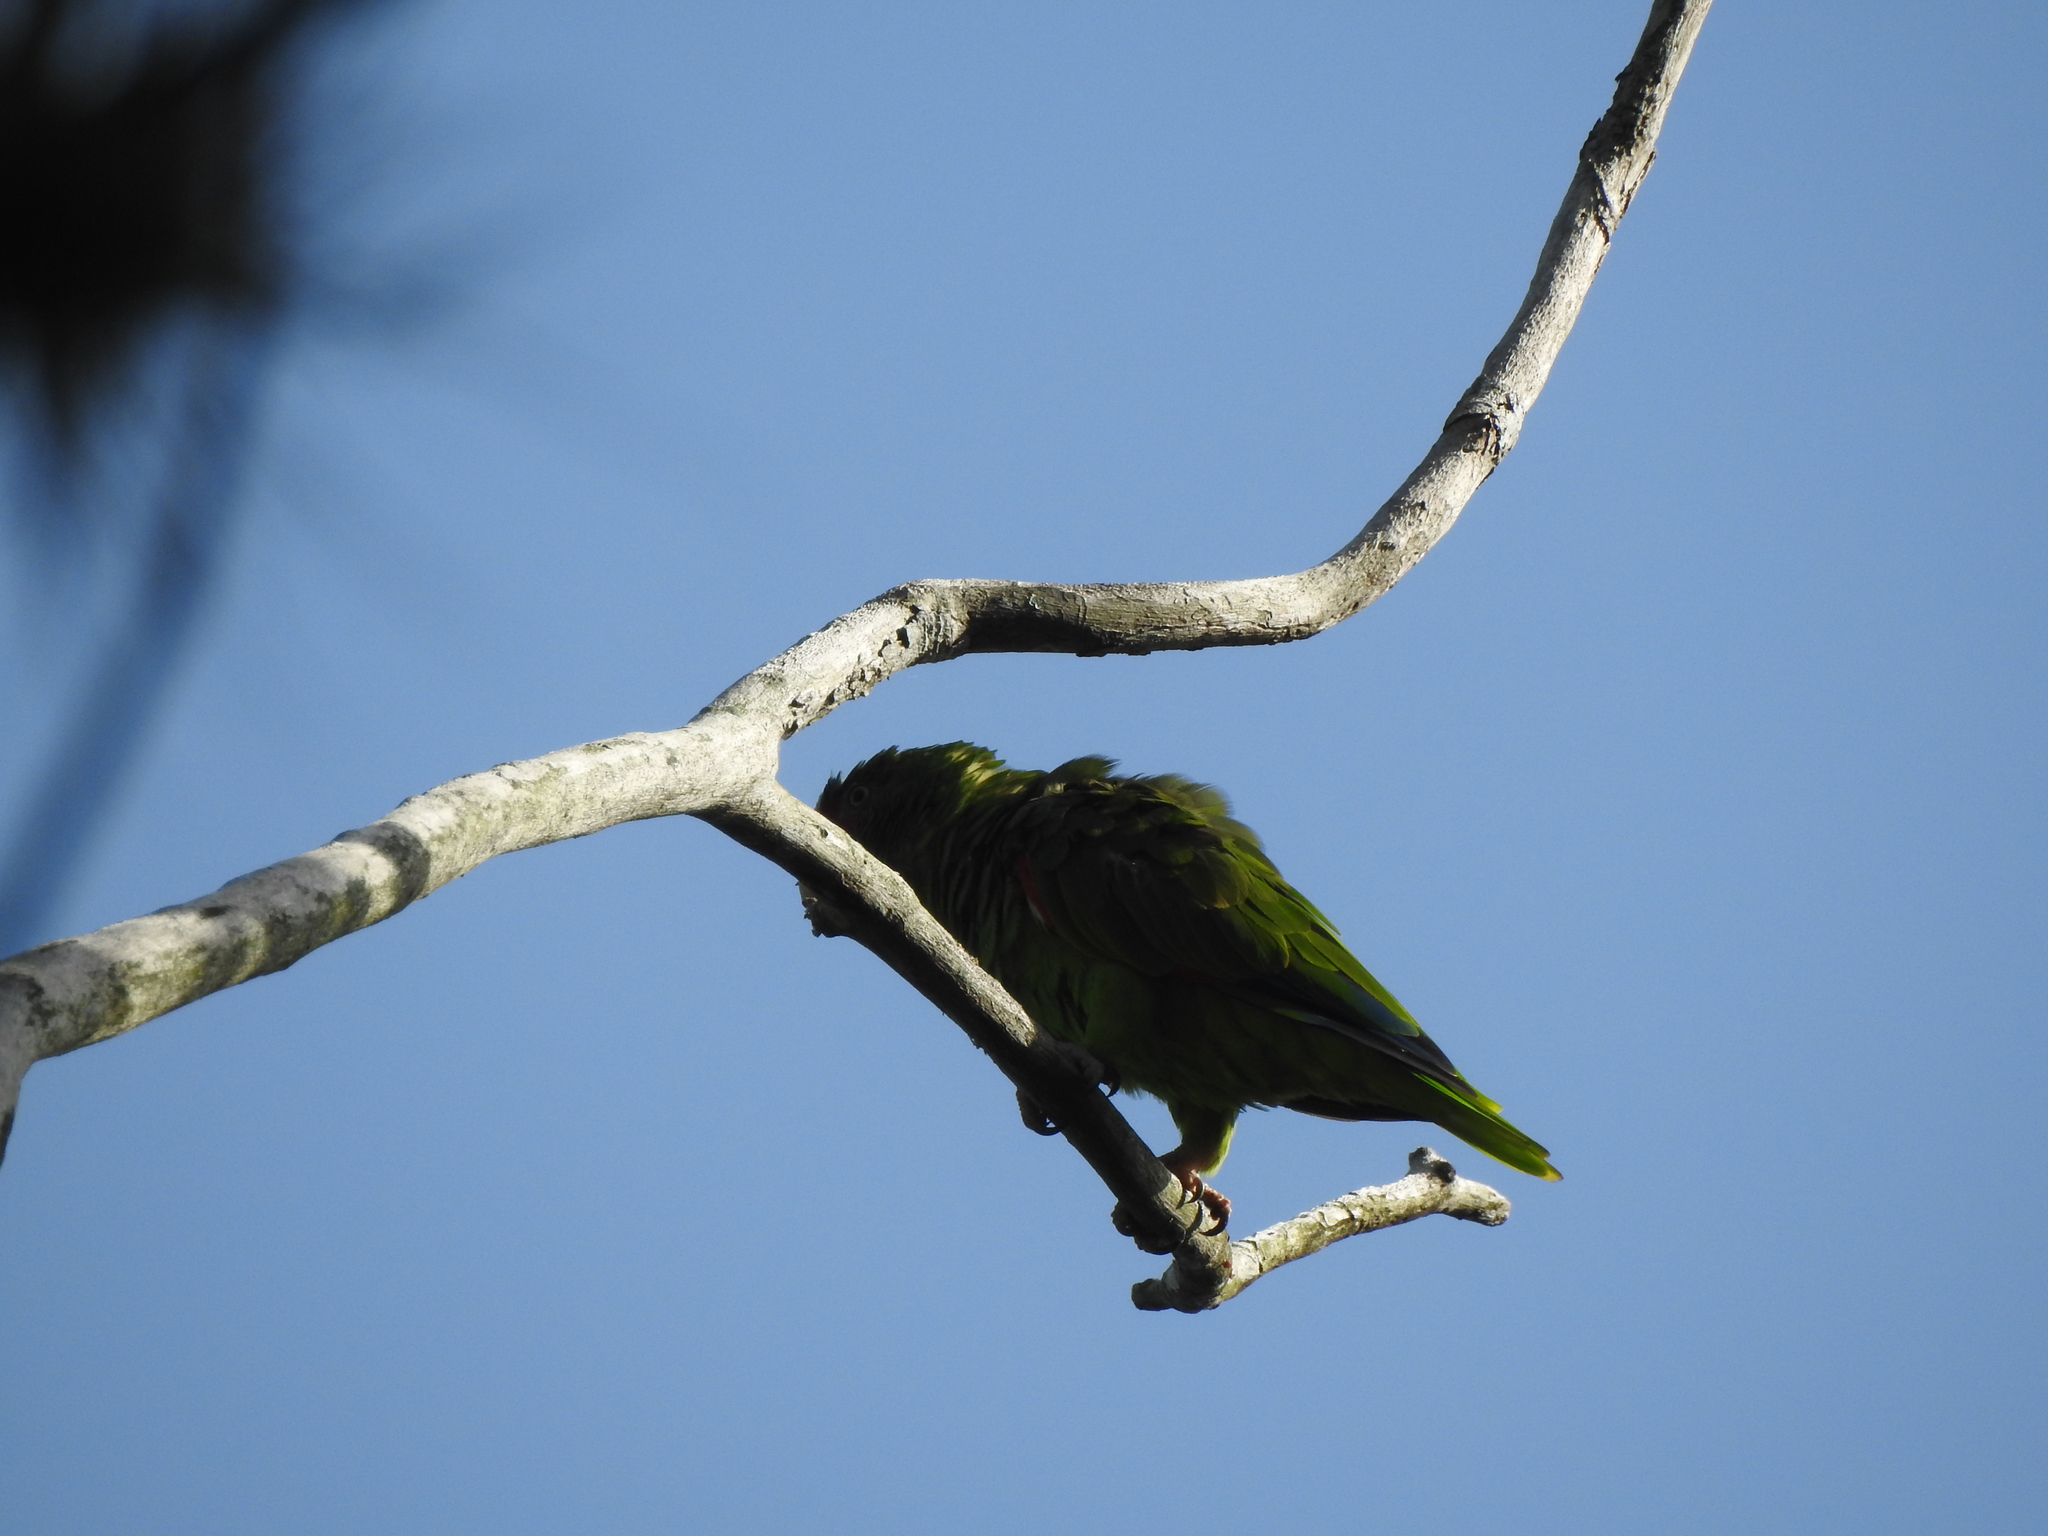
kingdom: Animalia
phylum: Chordata
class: Aves
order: Psittaciformes
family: Psittacidae
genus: Amazona
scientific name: Amazona albifrons
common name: White-fronted amazon
